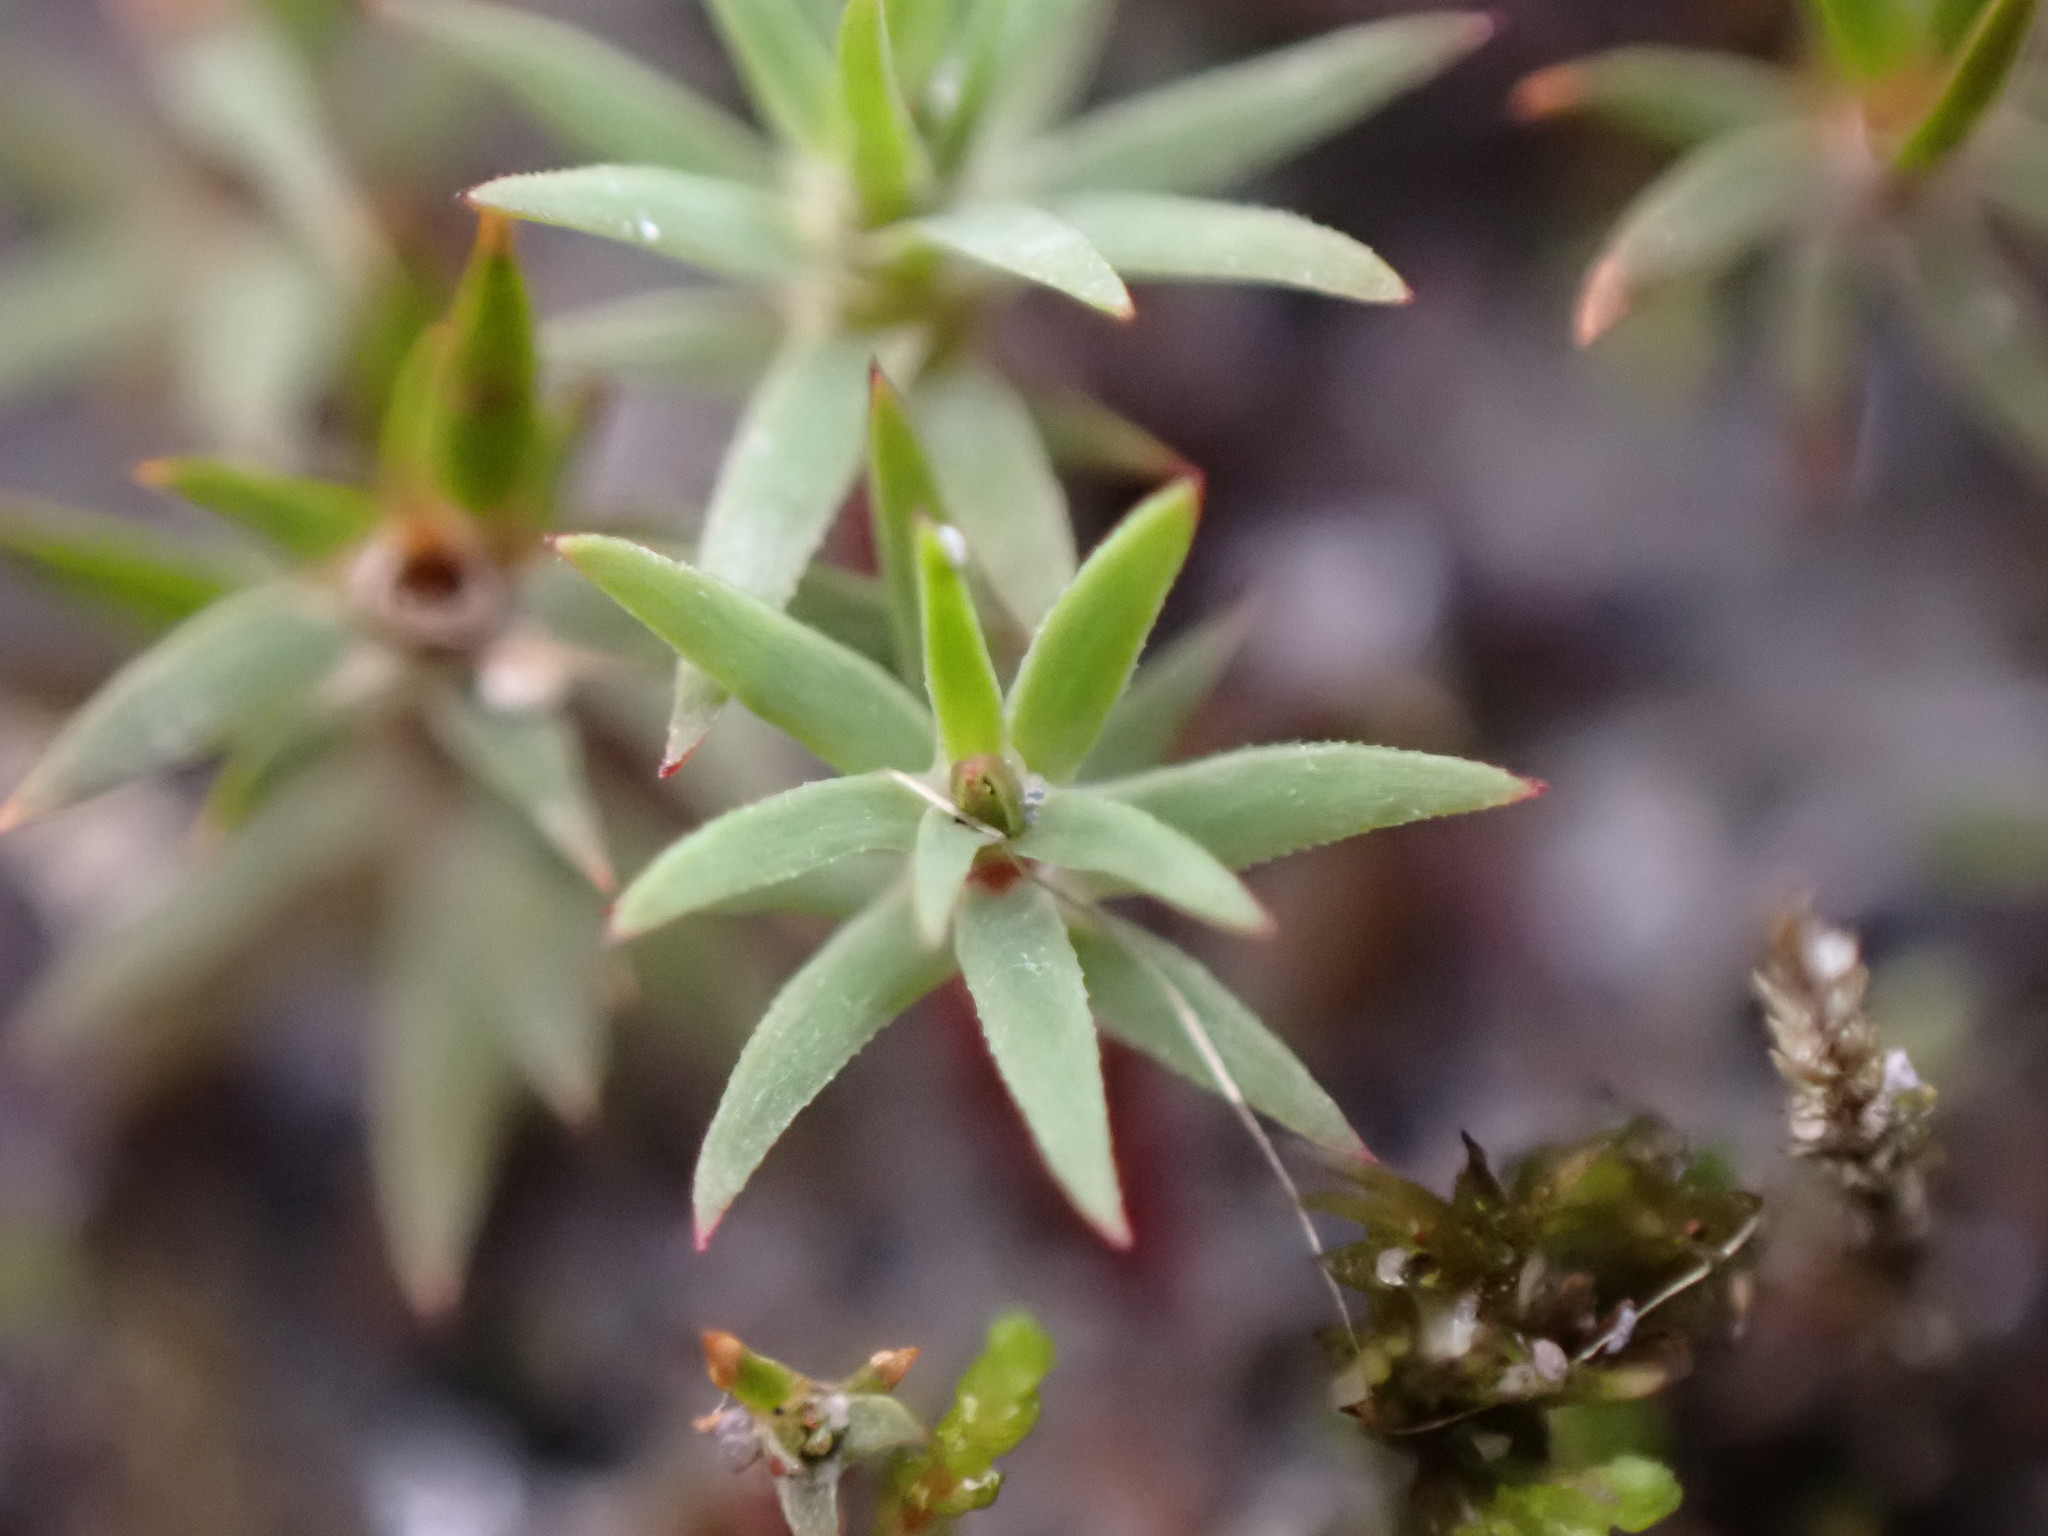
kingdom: Plantae
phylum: Bryophyta
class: Polytrichopsida
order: Polytrichales
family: Polytrichaceae
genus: Pogonatum
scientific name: Pogonatum urnigerum
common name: Urn hair moss
